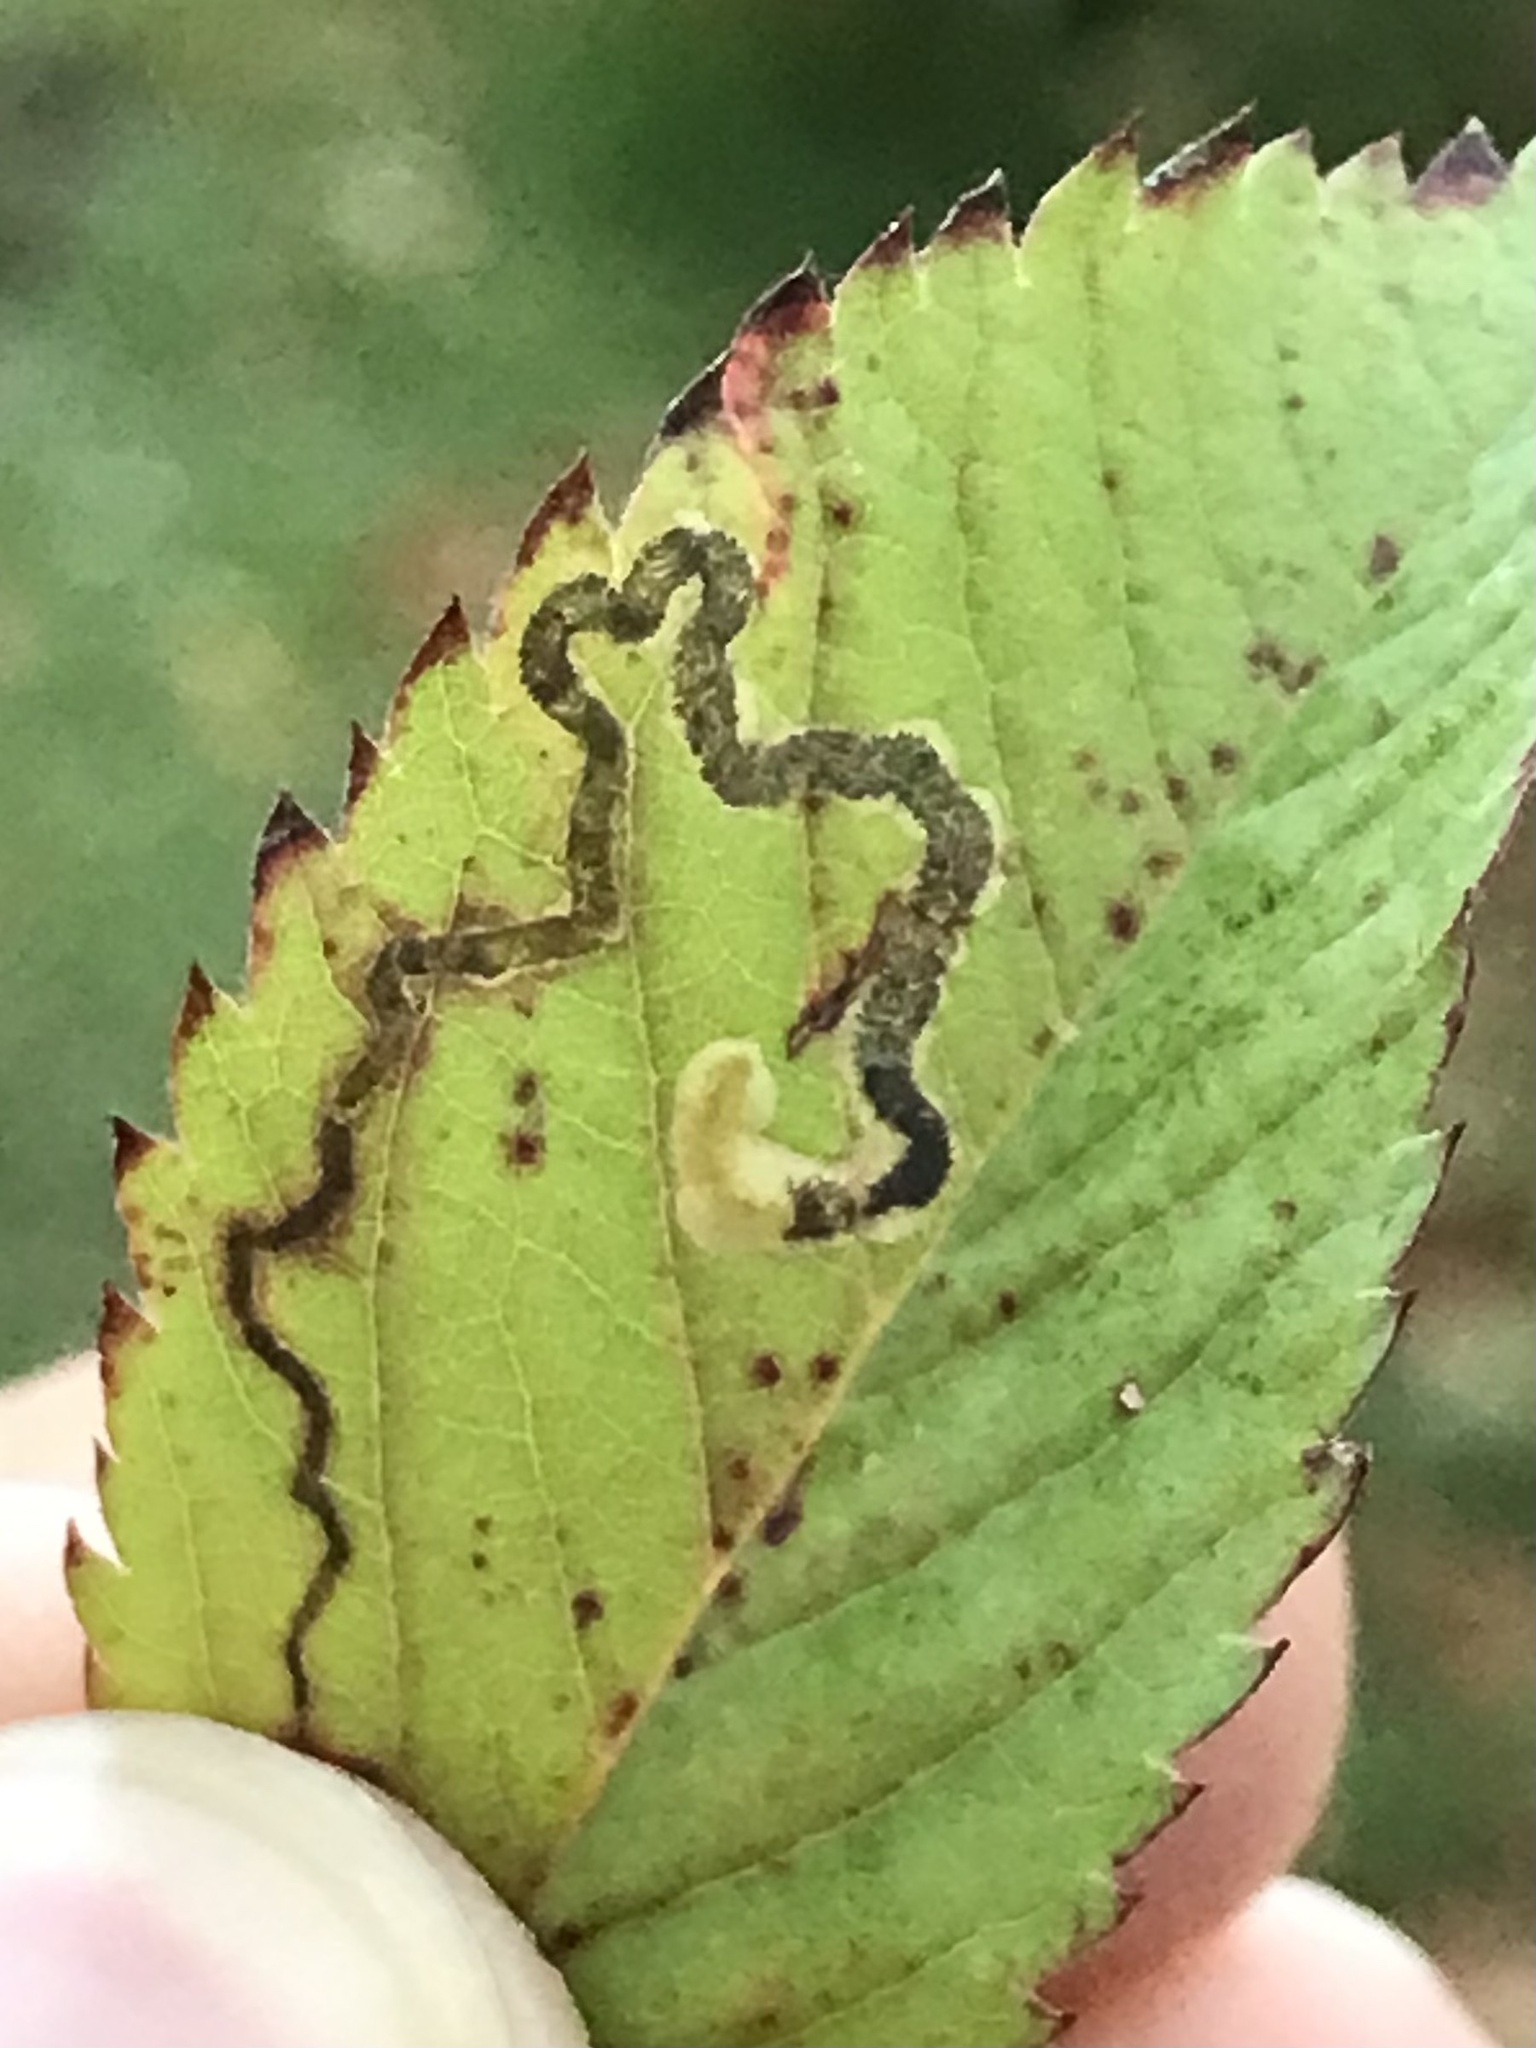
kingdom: Animalia
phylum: Arthropoda
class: Insecta
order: Lepidoptera
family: Nepticulidae
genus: Stigmella
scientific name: Stigmella rosaefoliella
